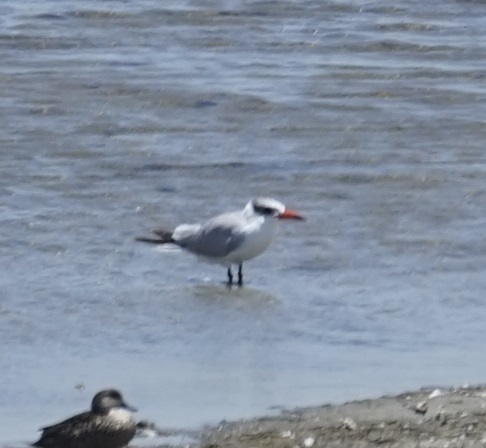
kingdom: Animalia
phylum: Chordata
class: Aves
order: Charadriiformes
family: Laridae
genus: Hydroprogne
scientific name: Hydroprogne caspia
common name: Caspian tern
